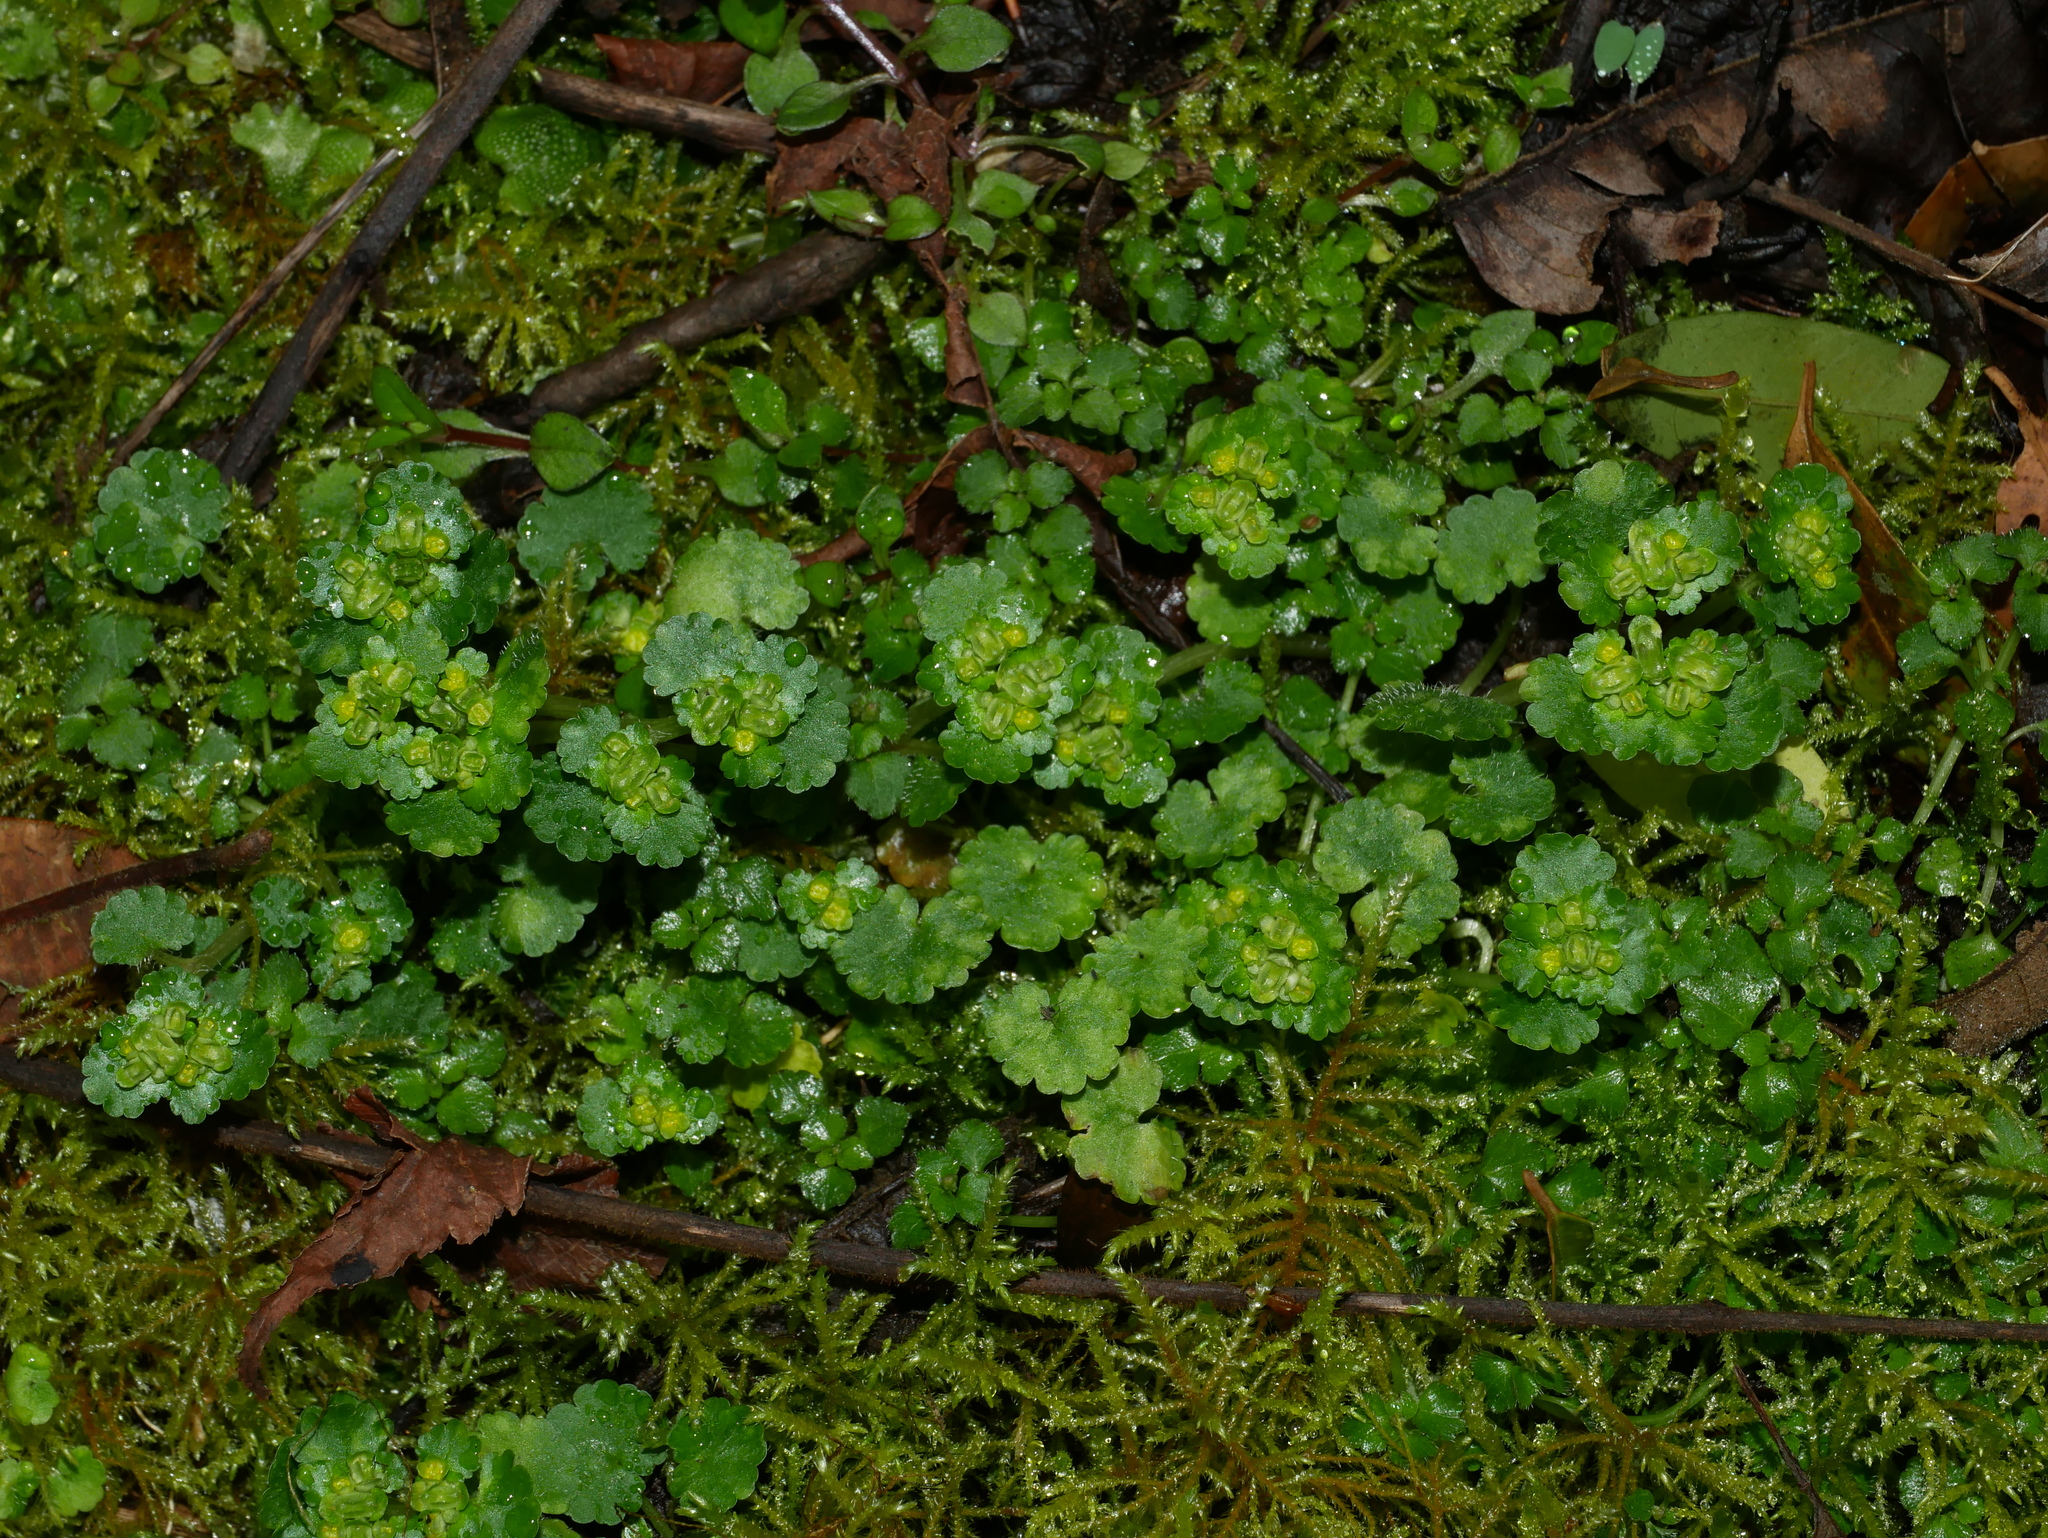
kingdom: Plantae
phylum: Tracheophyta
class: Magnoliopsida
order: Saxifragales
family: Saxifragaceae
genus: Chrysosplenium
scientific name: Chrysosplenium japonicum
